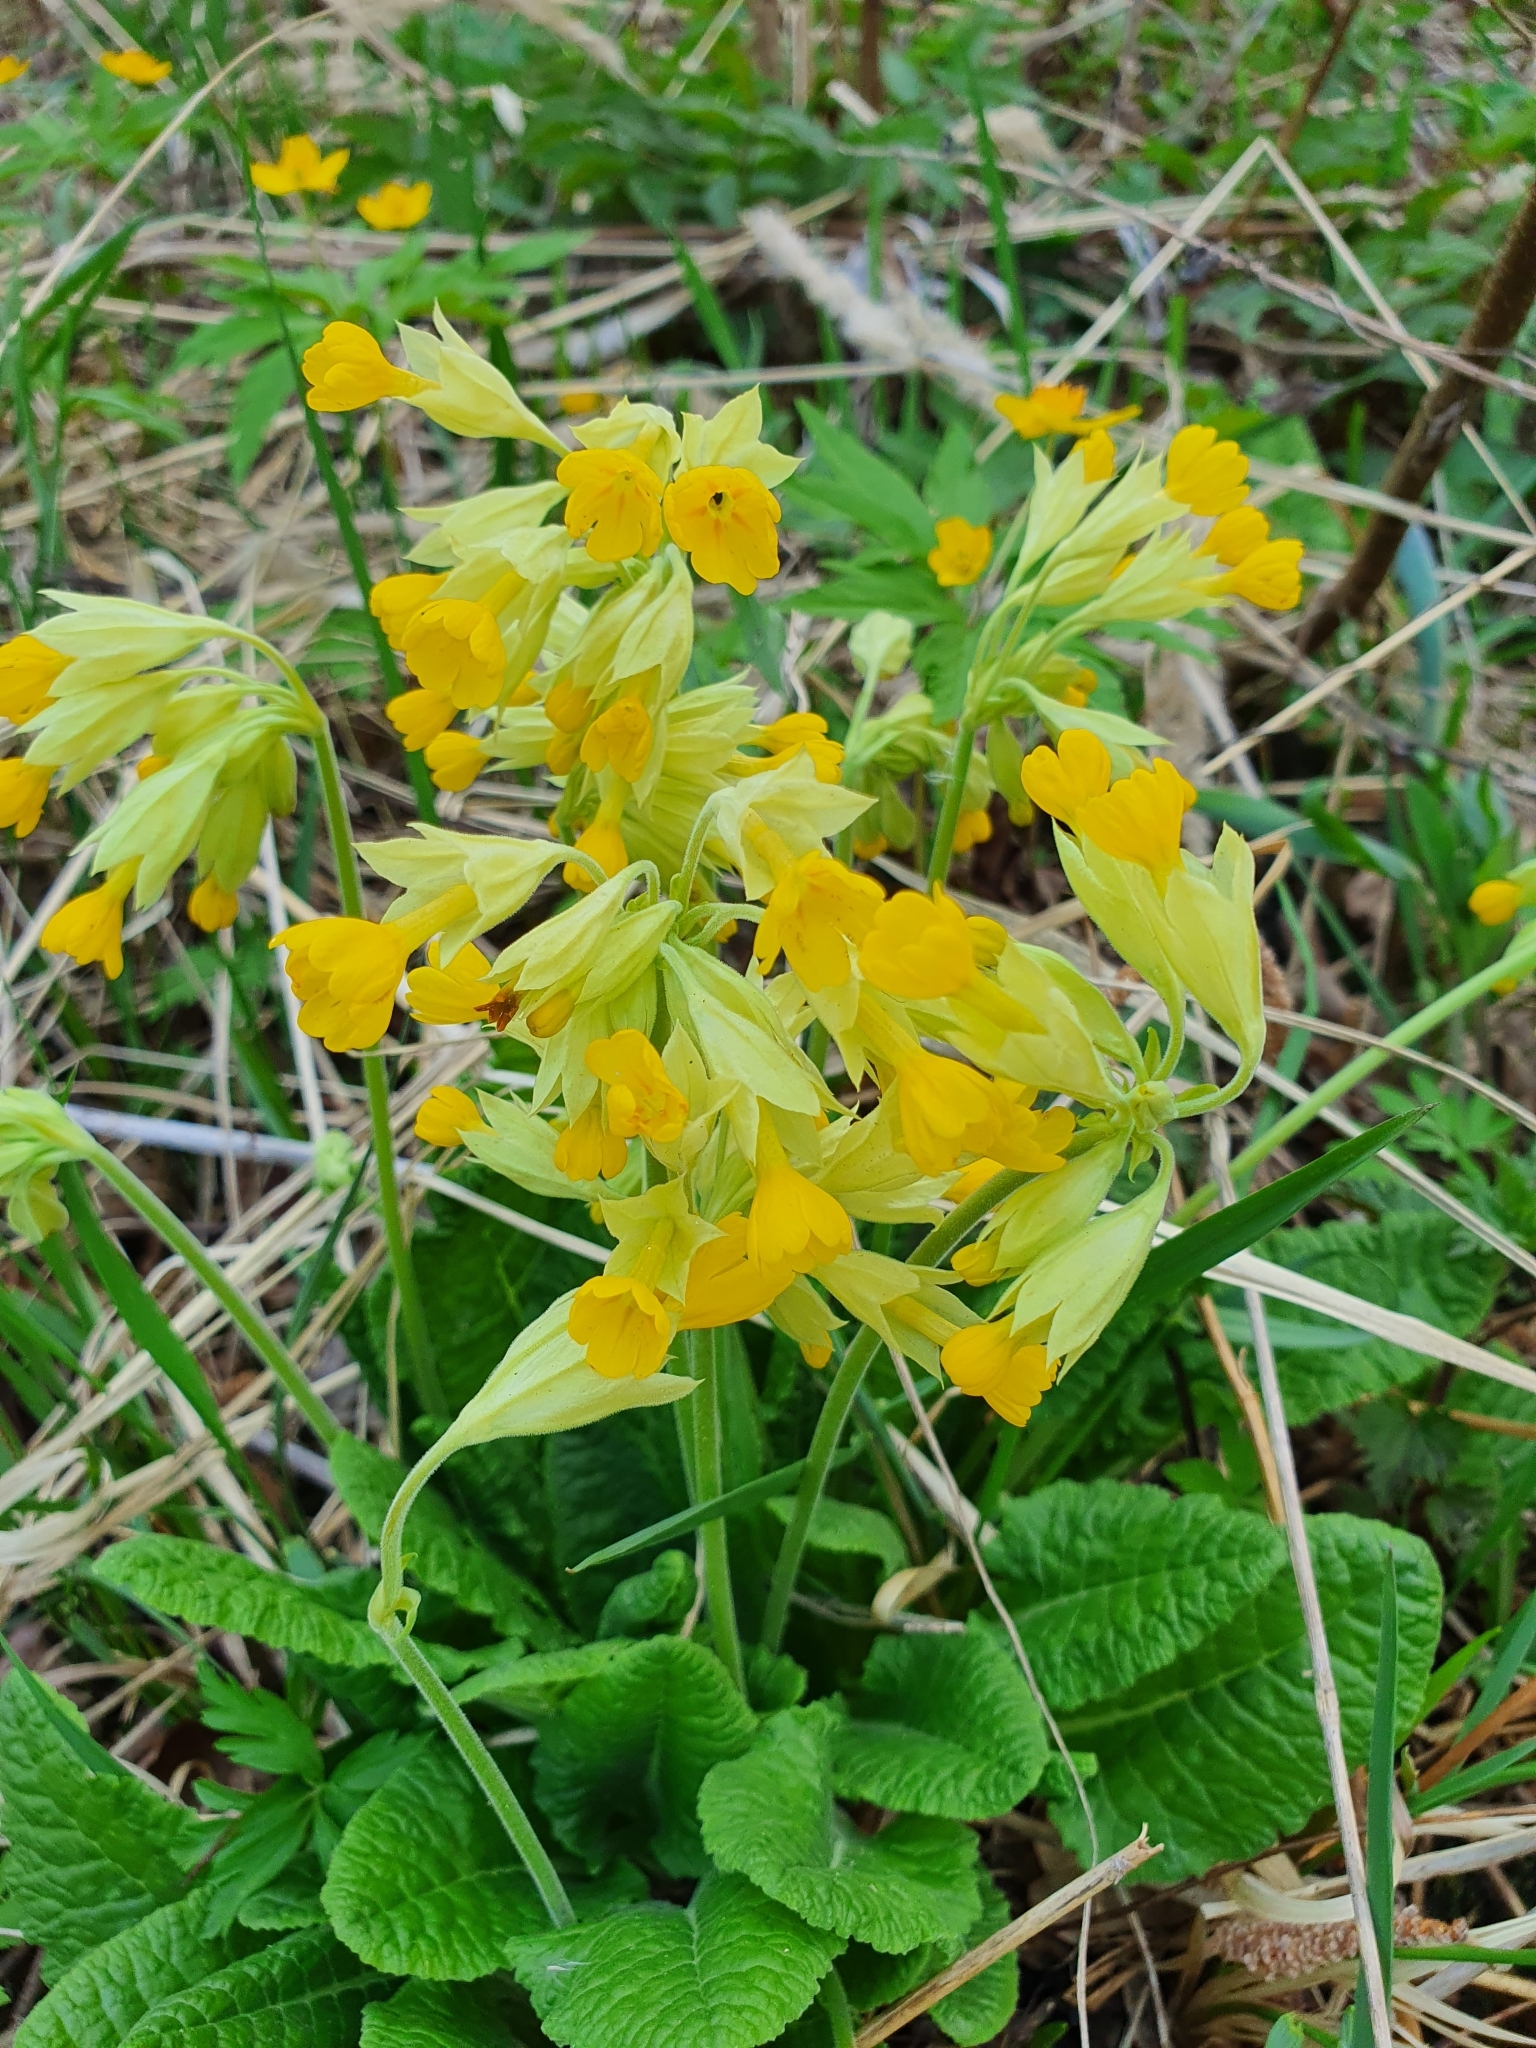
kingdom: Plantae
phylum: Tracheophyta
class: Magnoliopsida
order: Ericales
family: Primulaceae
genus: Primula
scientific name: Primula veris
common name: Cowslip
